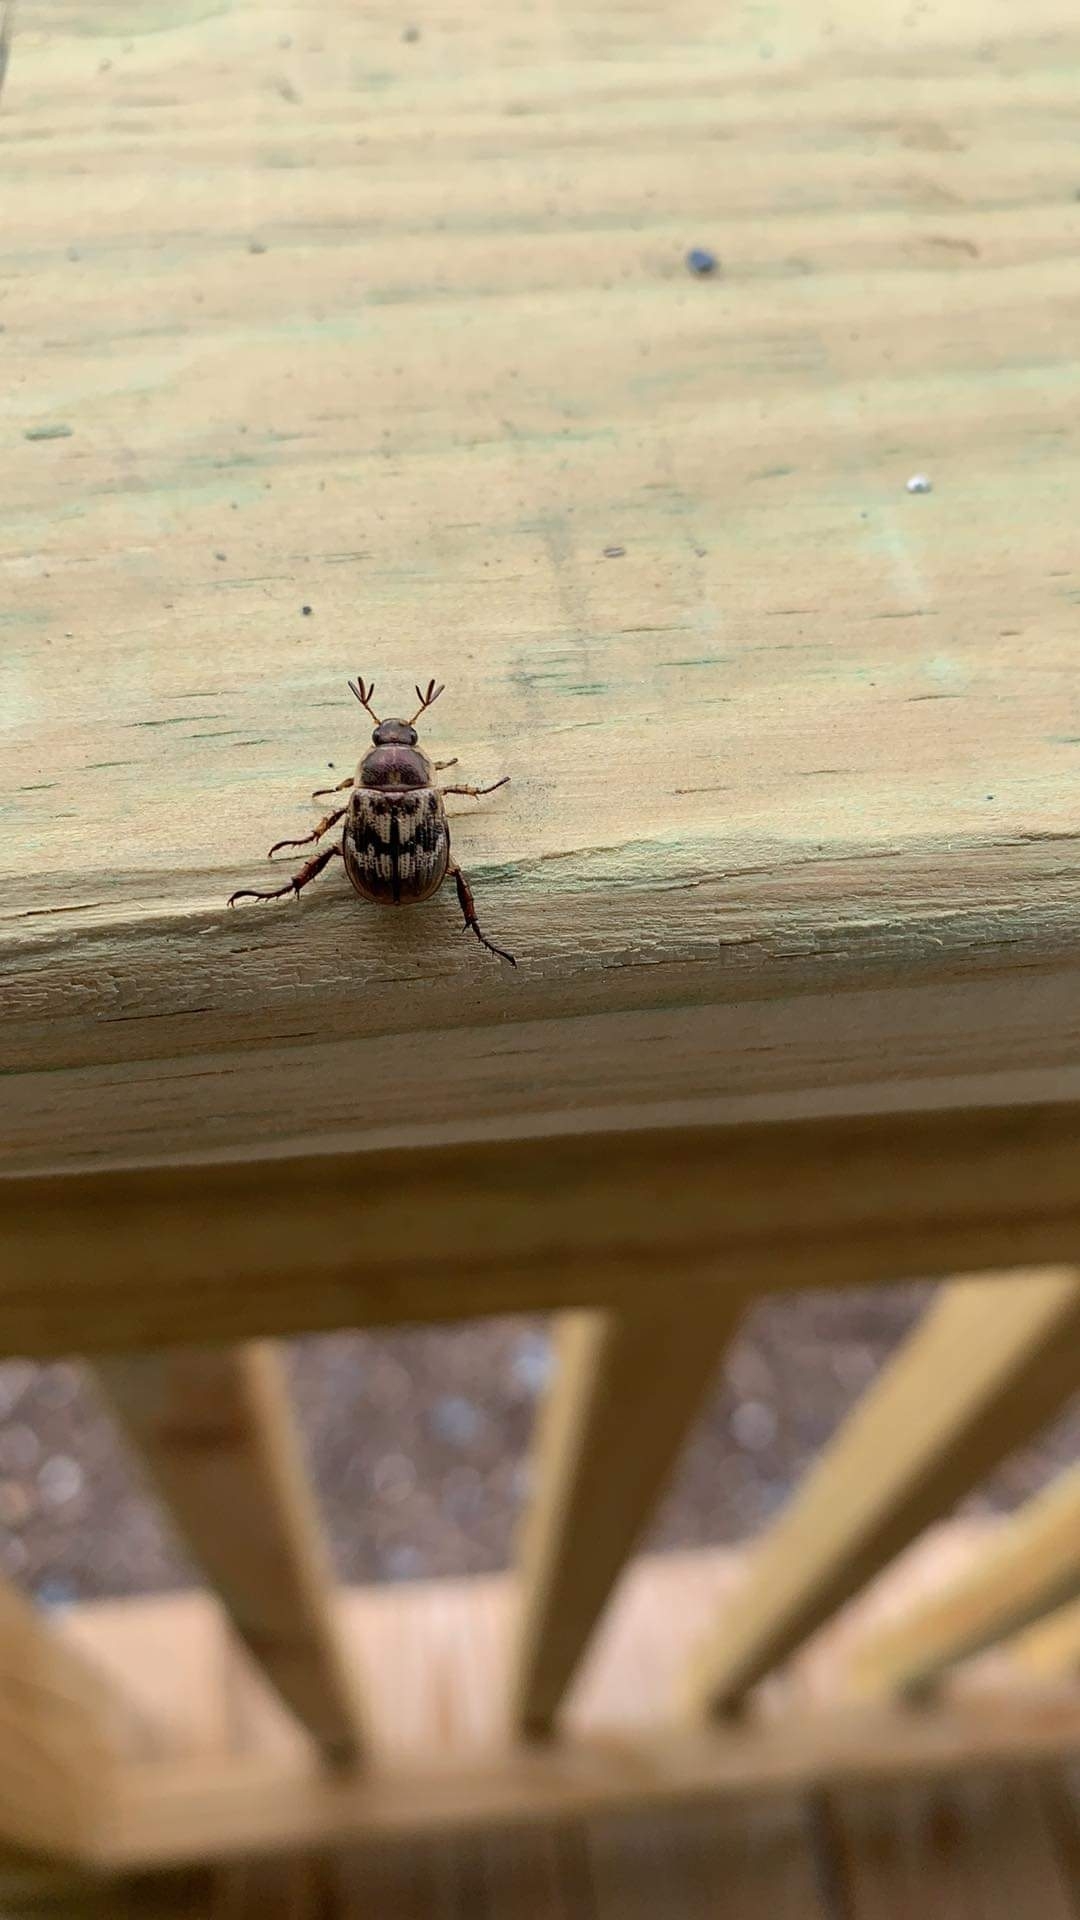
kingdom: Animalia
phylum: Arthropoda
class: Insecta
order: Coleoptera
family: Scarabaeidae
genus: Exomala
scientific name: Exomala orientalis
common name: Oriental beetle
